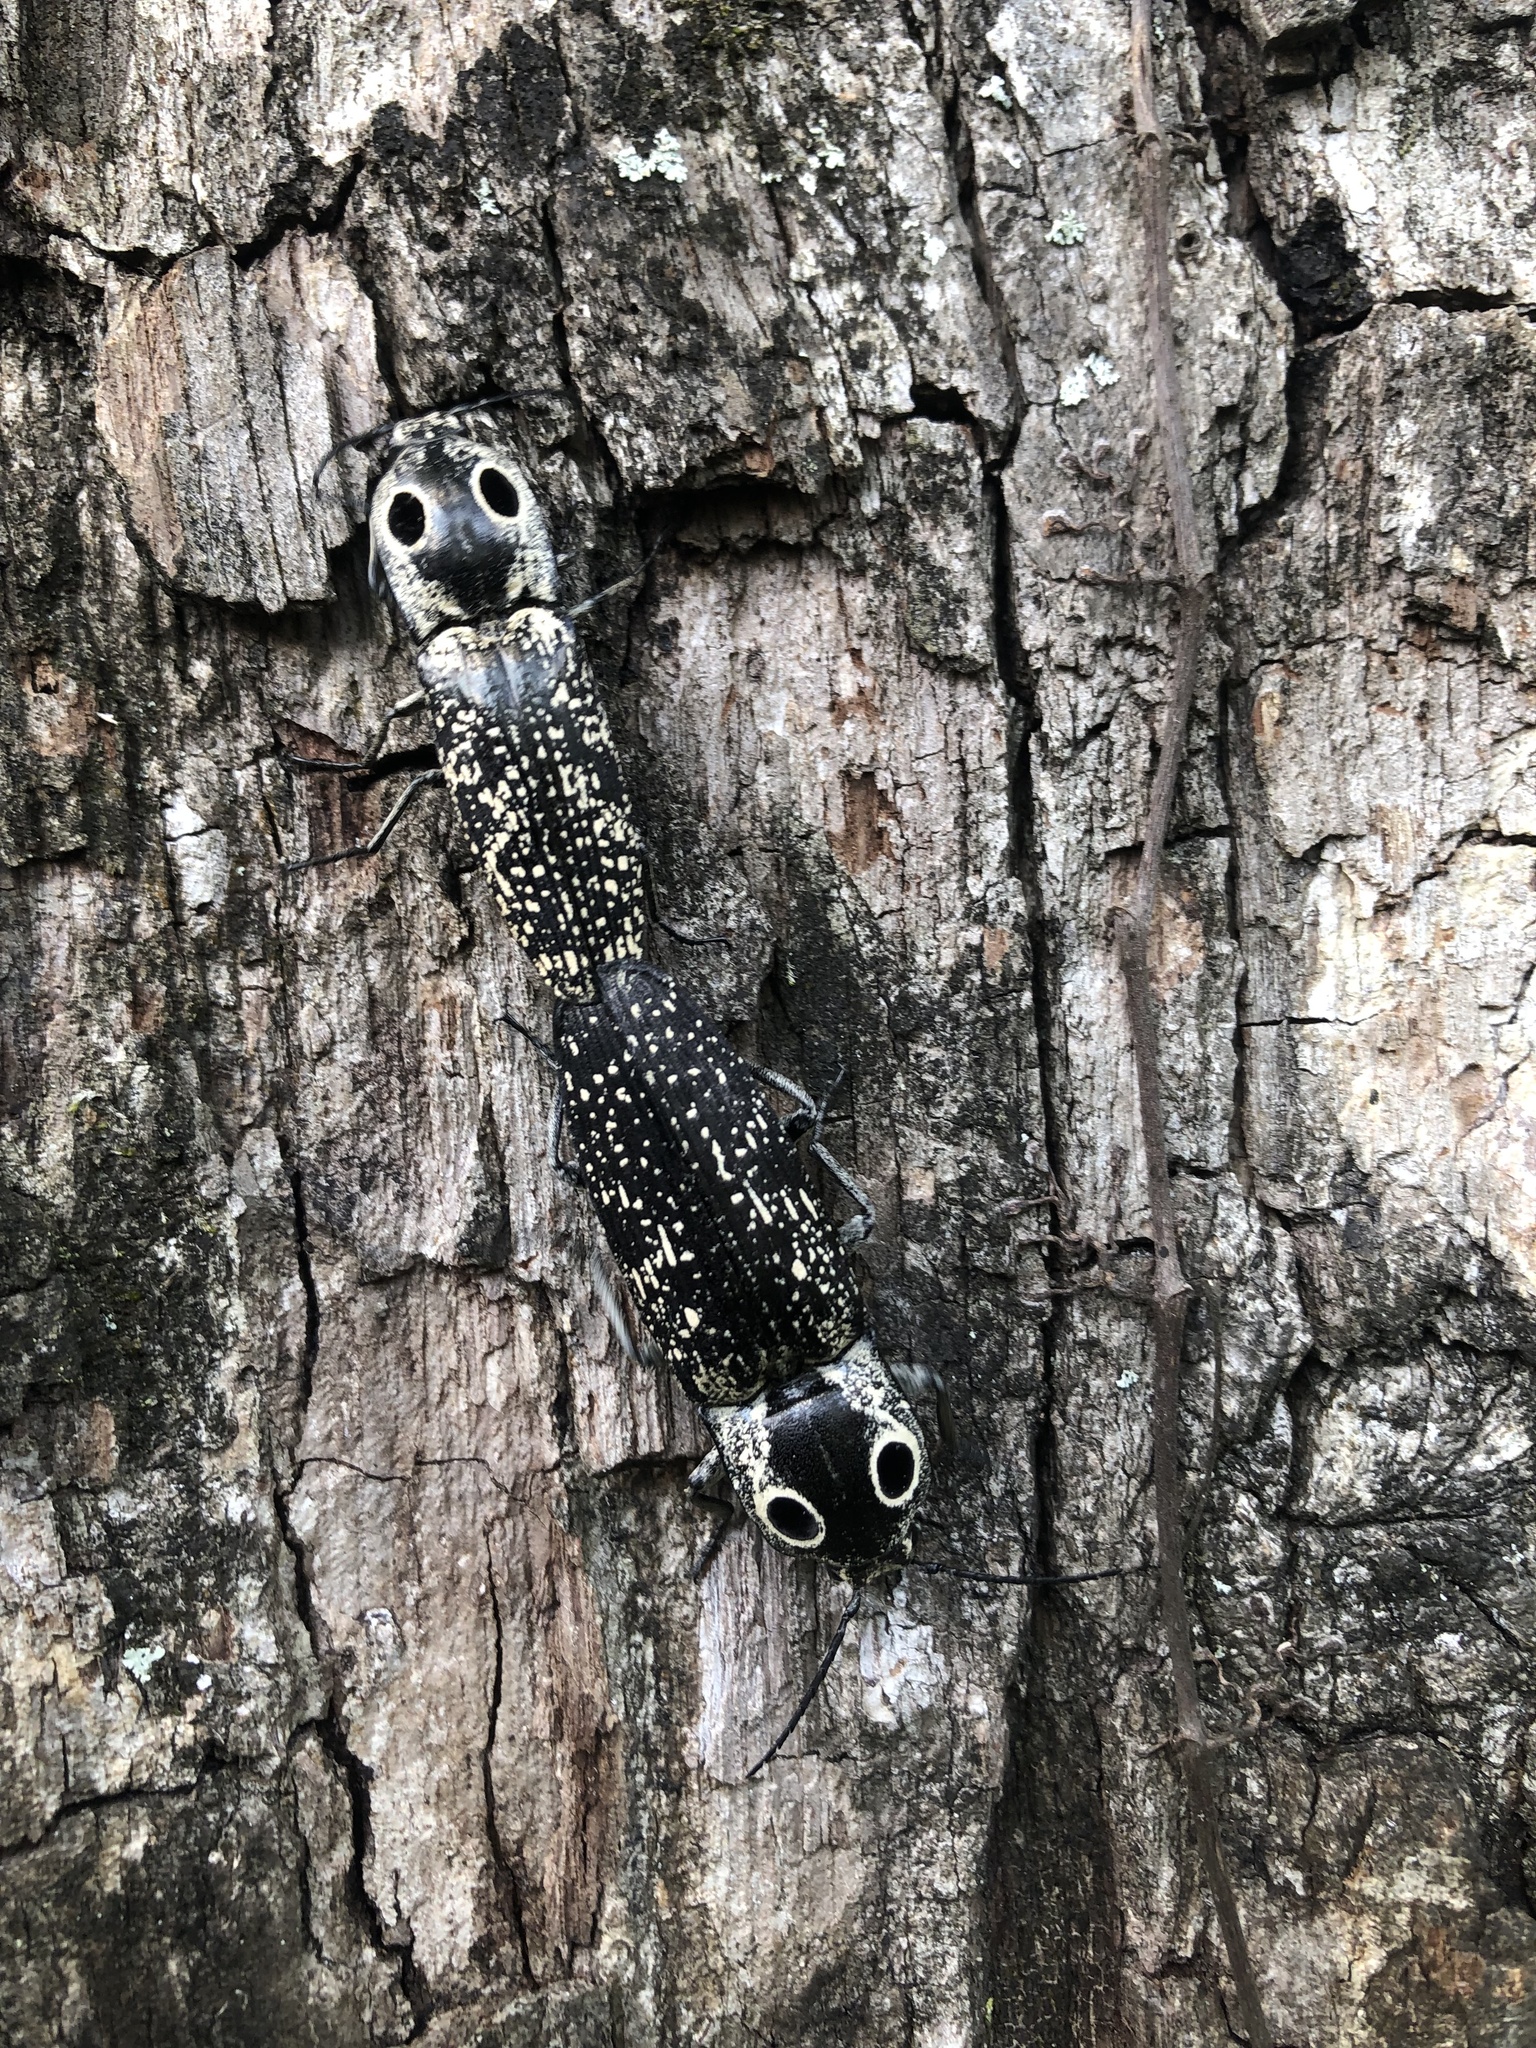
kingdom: Animalia
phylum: Arthropoda
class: Insecta
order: Coleoptera
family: Elateridae
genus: Alaus
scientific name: Alaus oculatus
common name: Eastern eyed click beetle
